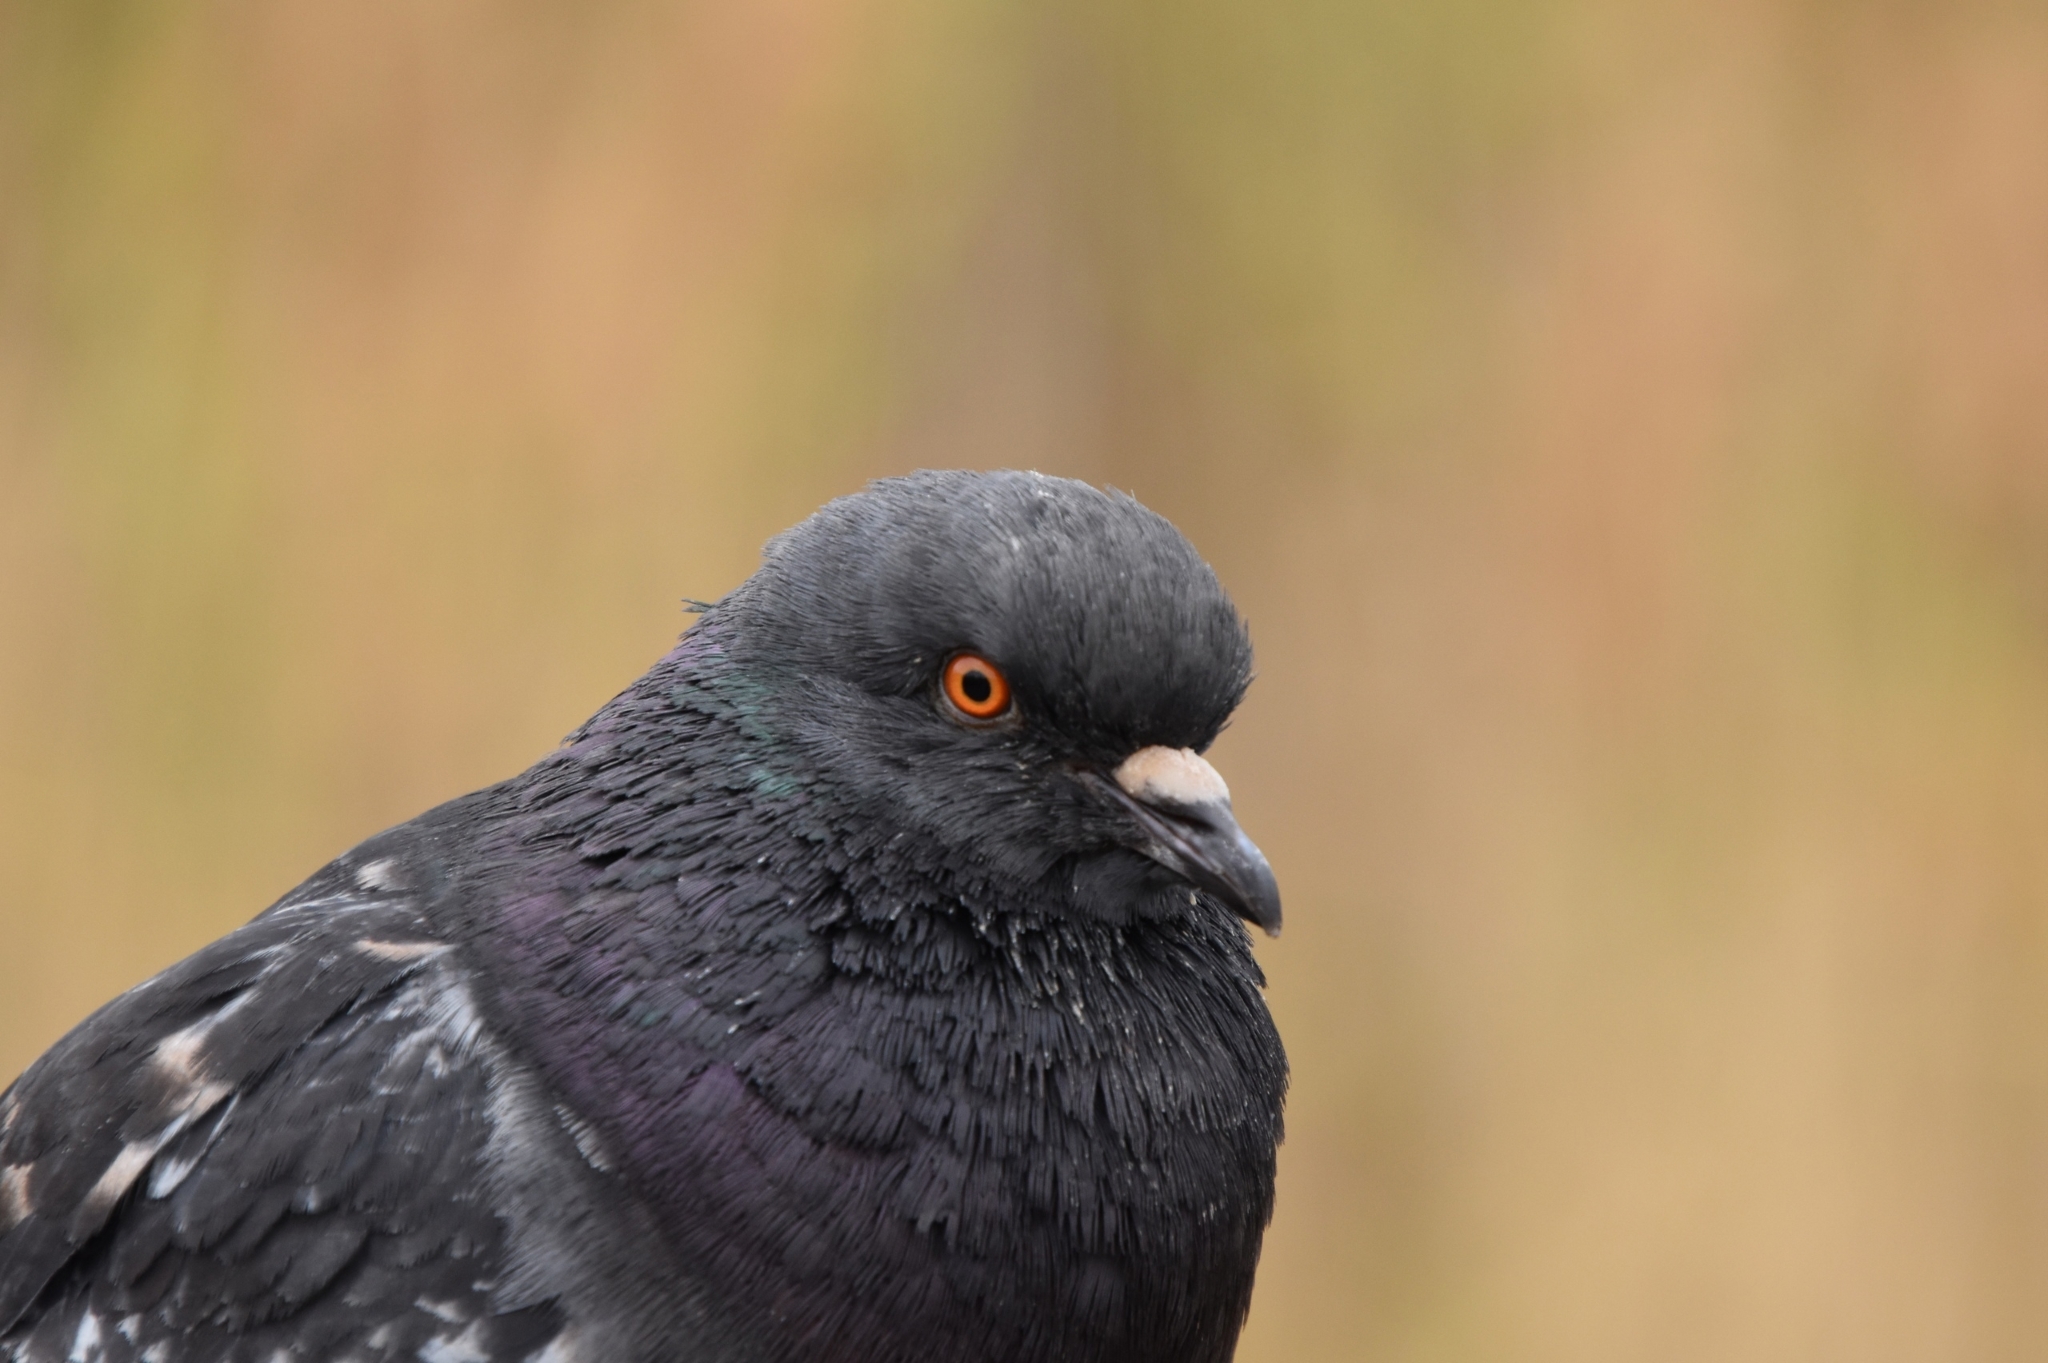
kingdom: Animalia
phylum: Chordata
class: Aves
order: Columbiformes
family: Columbidae
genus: Columba
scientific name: Columba livia
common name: Rock pigeon
